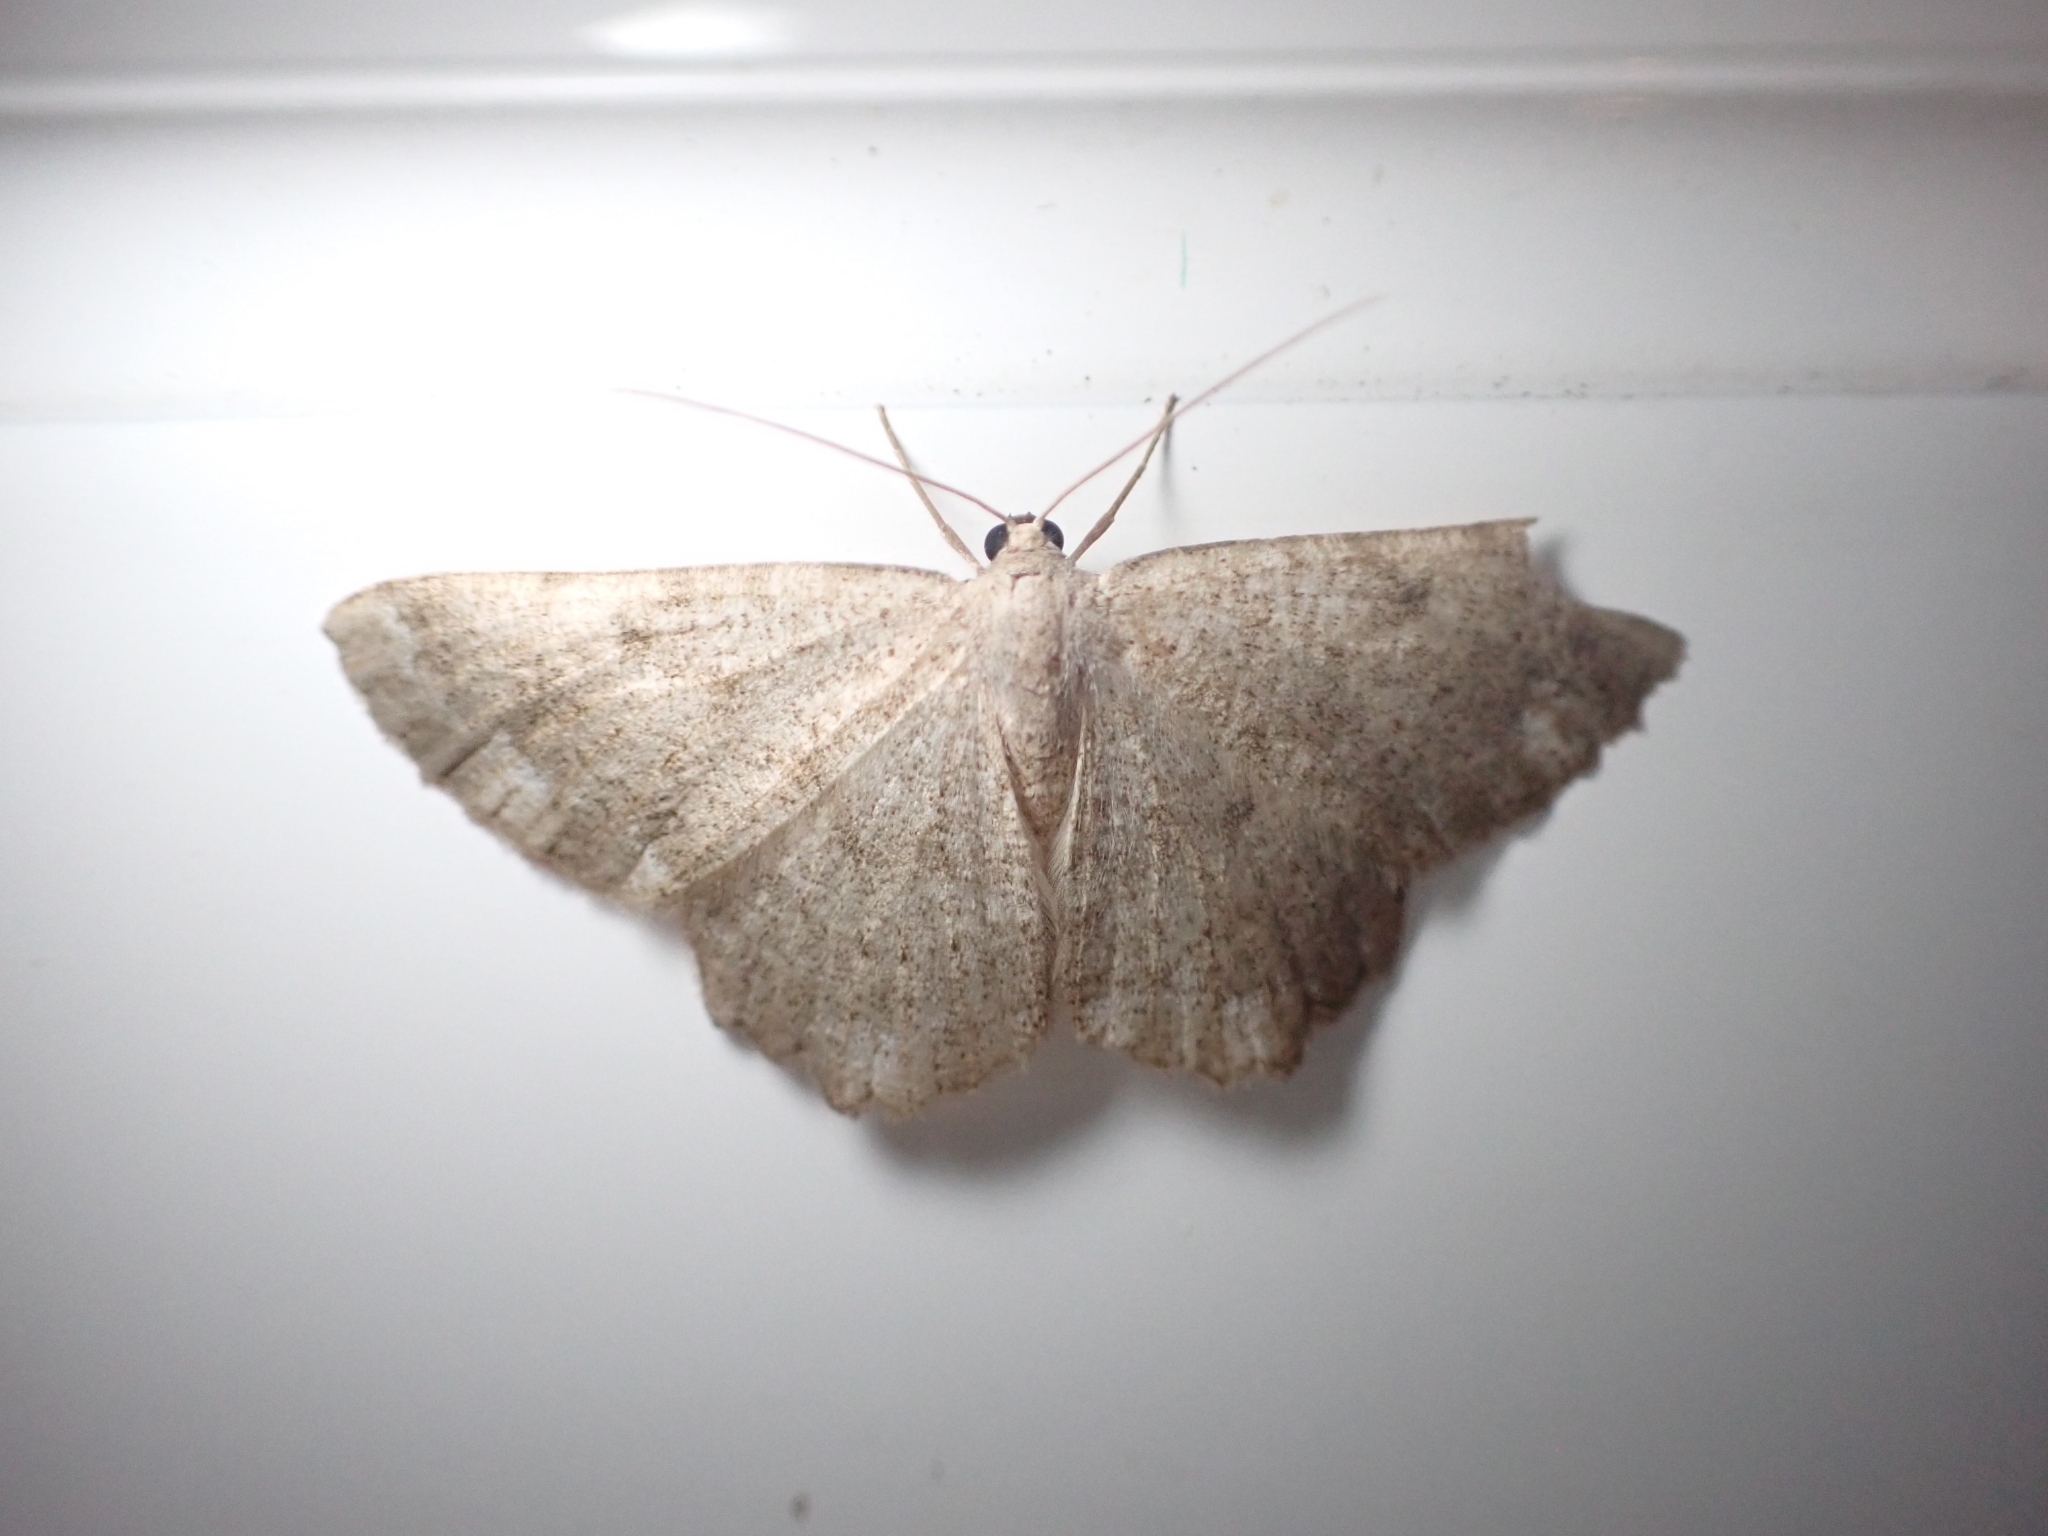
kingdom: Animalia
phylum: Arthropoda
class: Insecta
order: Lepidoptera
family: Geometridae
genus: Gnophos
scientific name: Gnophos sartata
